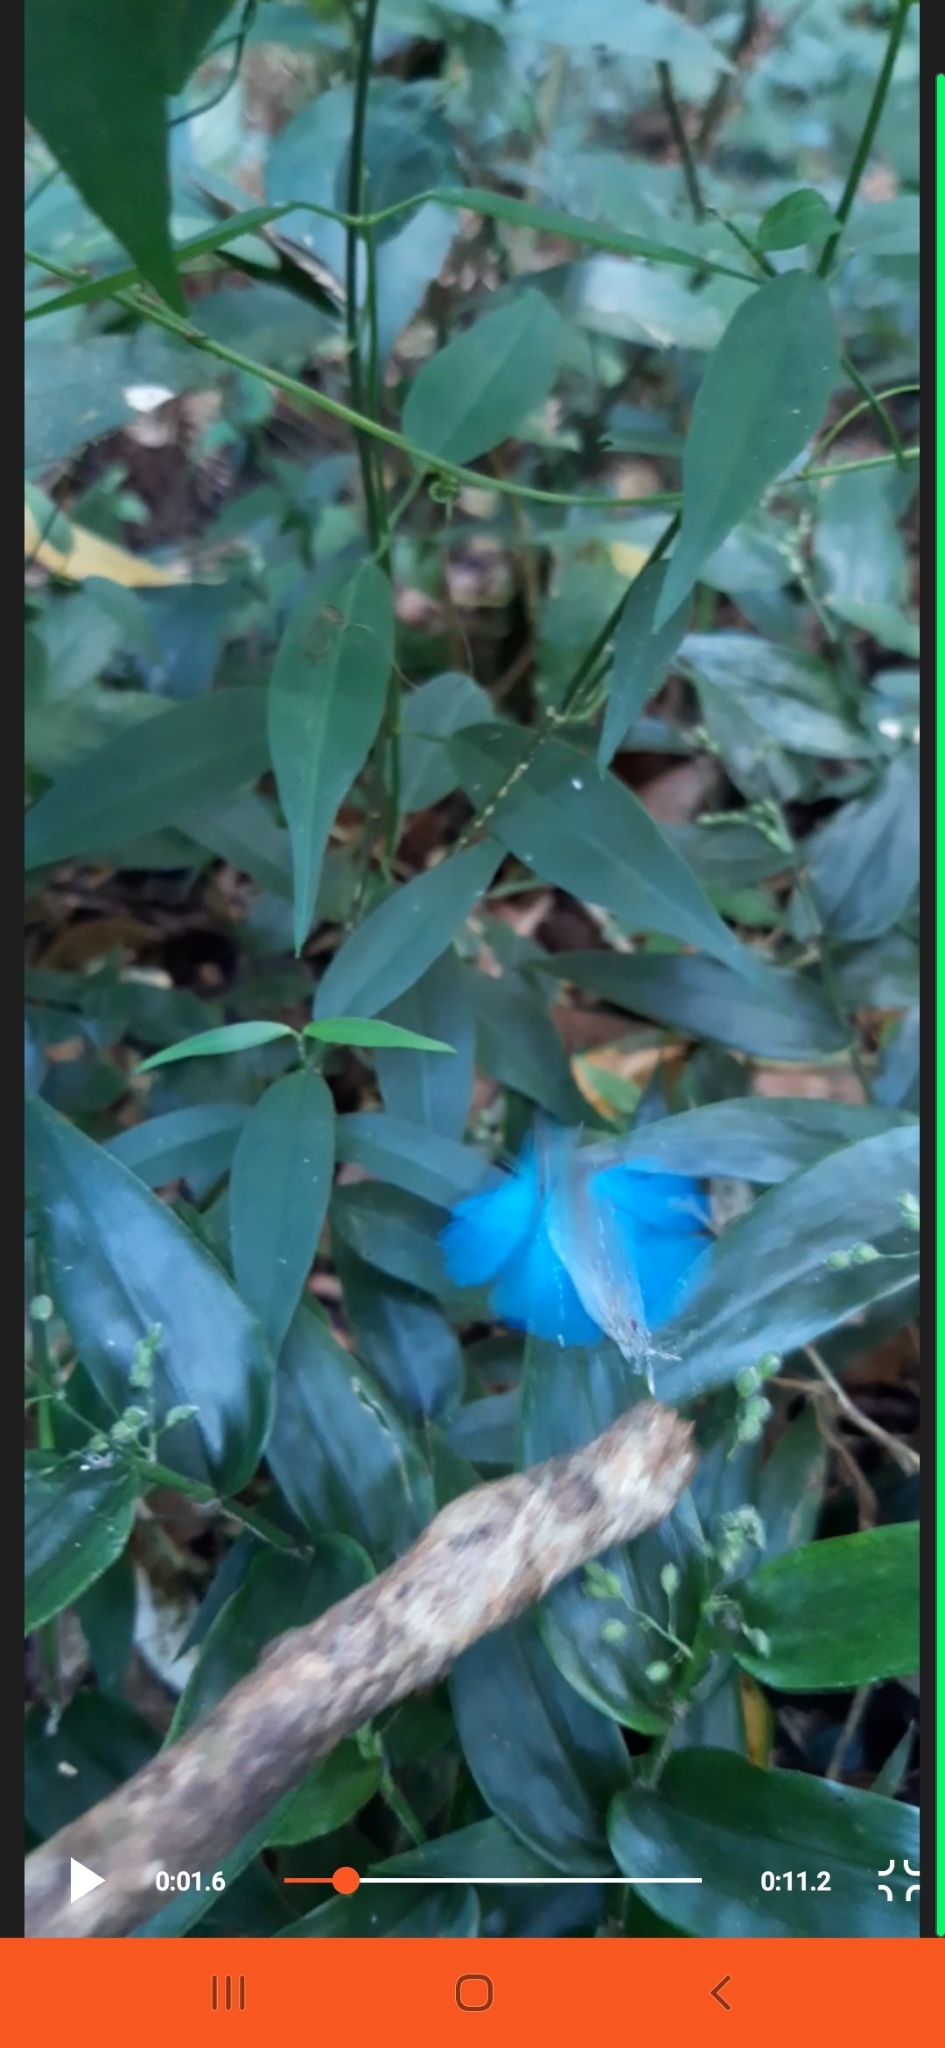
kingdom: Animalia
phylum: Arthropoda
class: Insecta
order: Lepidoptera
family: Lycaenidae
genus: Strephonota
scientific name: Strephonota elika
